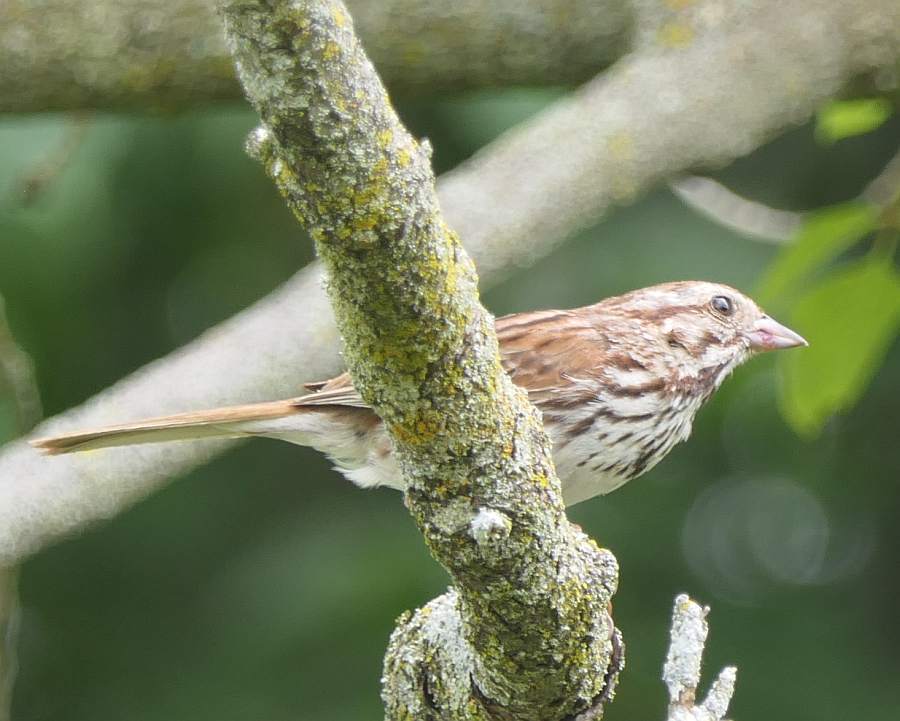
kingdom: Animalia
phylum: Chordata
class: Aves
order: Passeriformes
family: Passerellidae
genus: Melospiza
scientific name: Melospiza melodia
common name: Song sparrow
